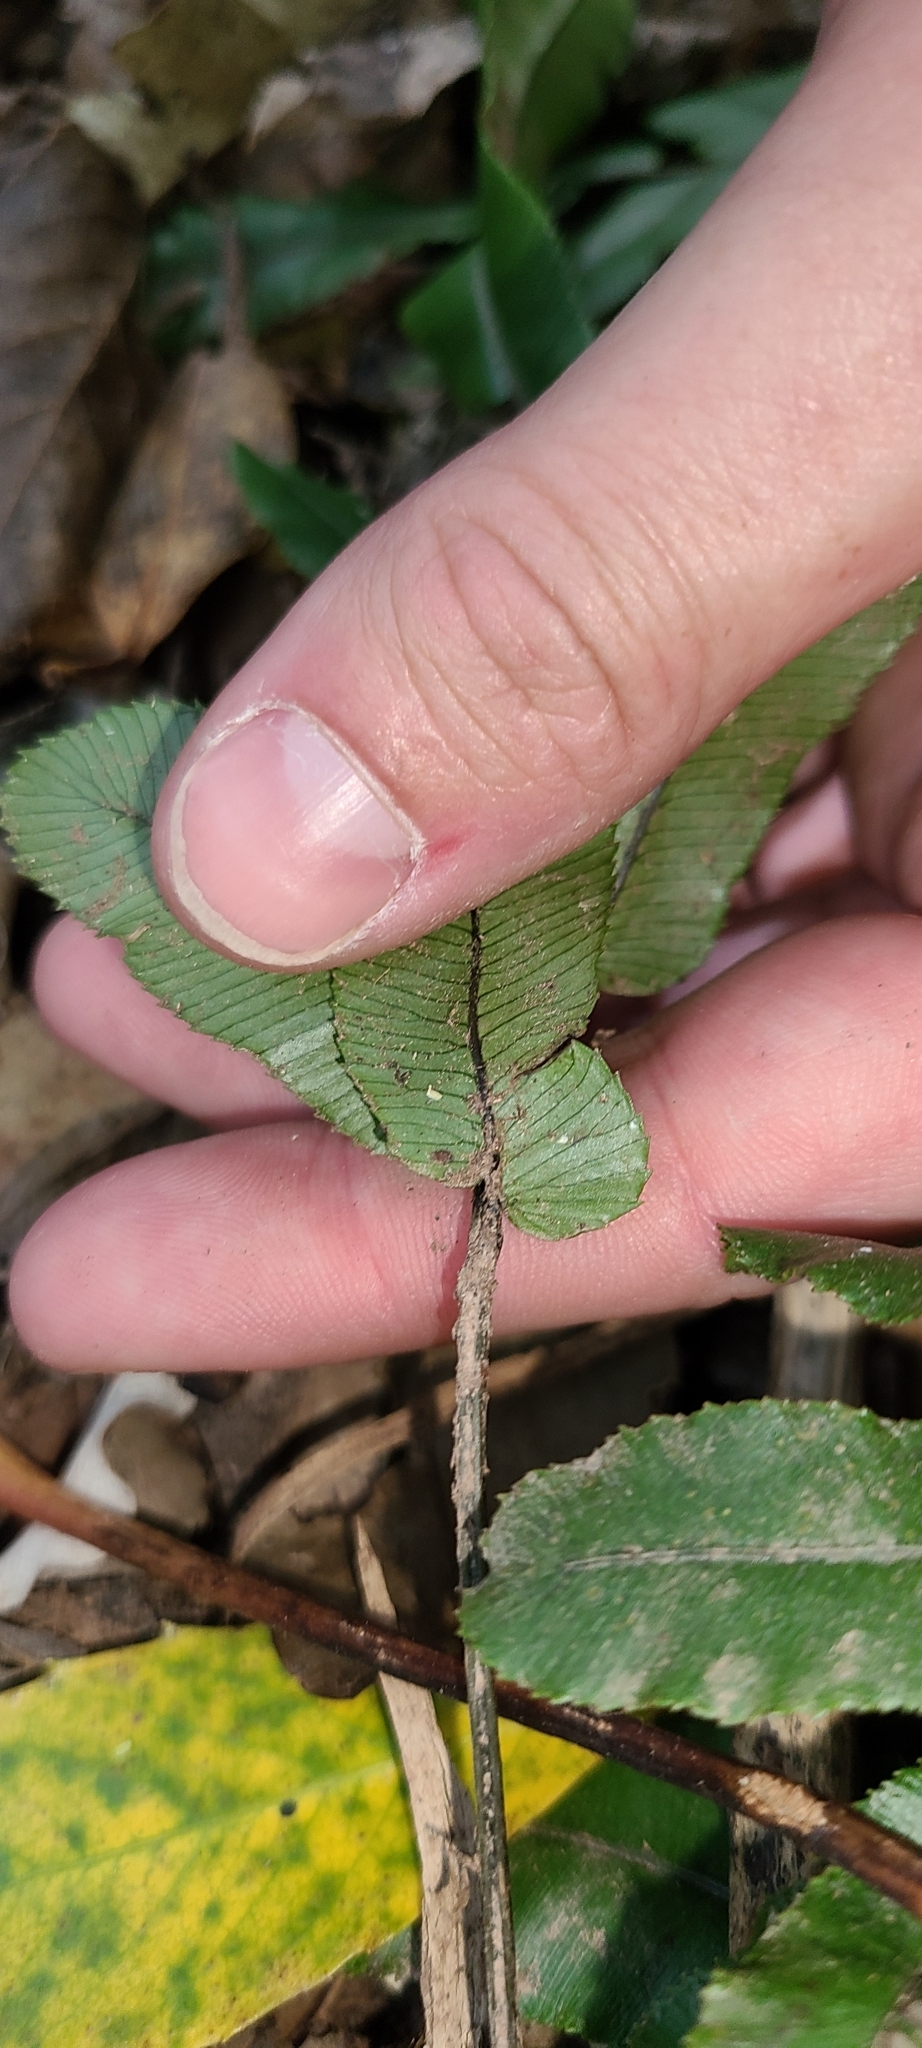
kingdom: Plantae
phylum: Tracheophyta
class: Polypodiopsida
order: Polypodiales
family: Blechnaceae
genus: Parablechnum
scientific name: Parablechnum procerum
